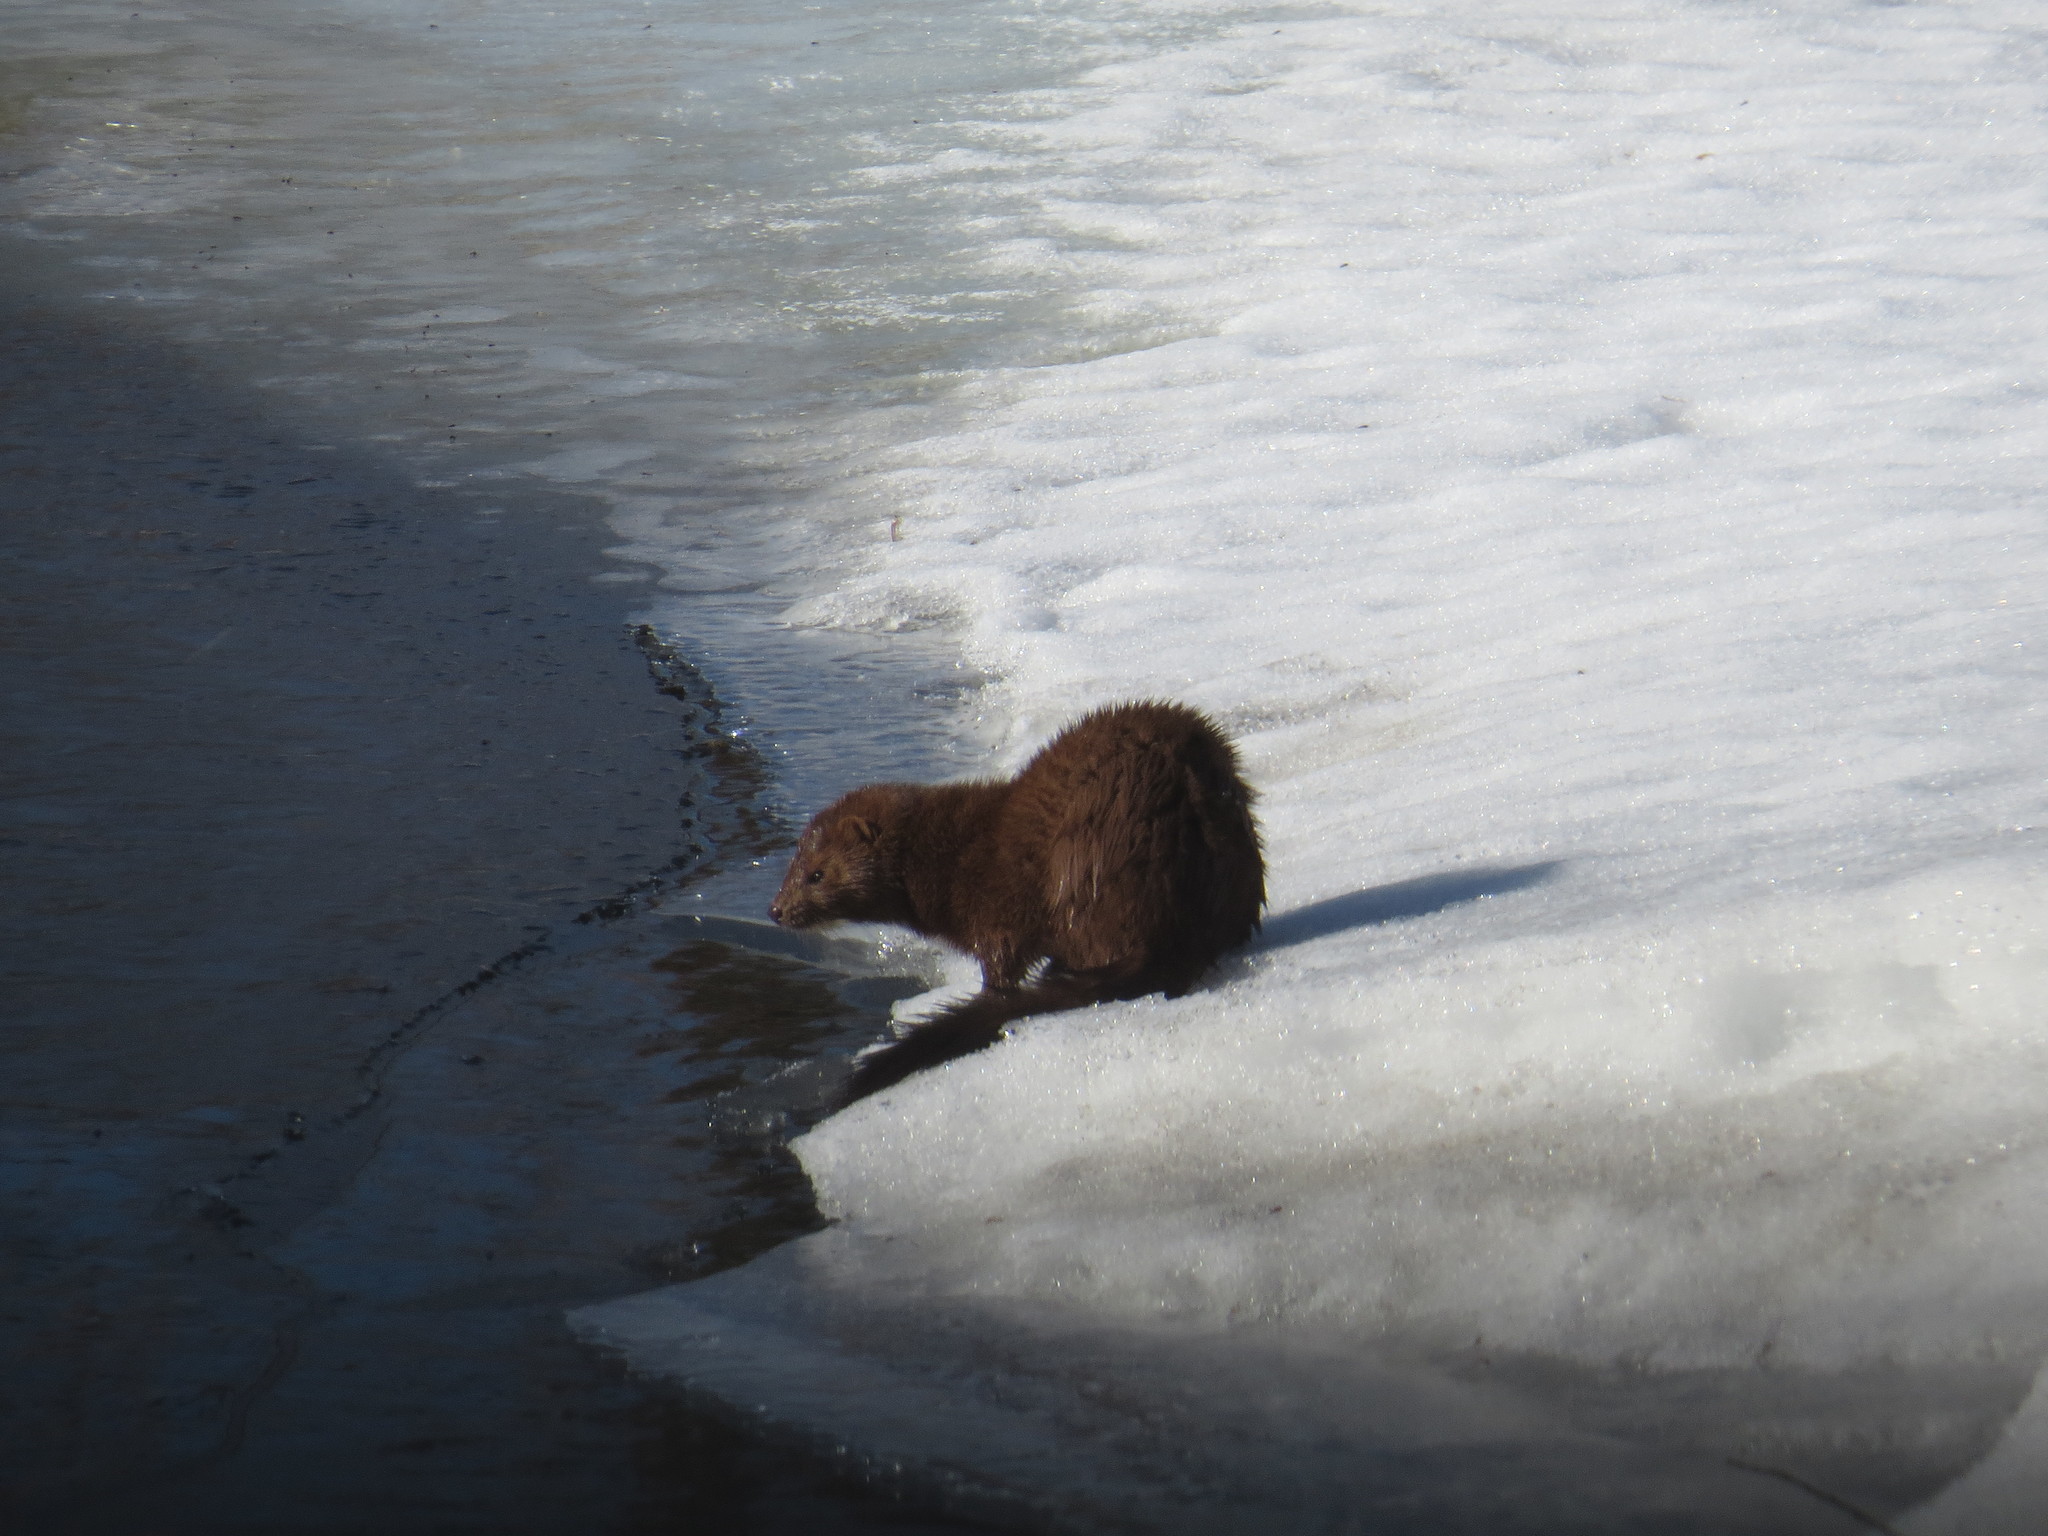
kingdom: Animalia
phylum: Chordata
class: Mammalia
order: Carnivora
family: Mustelidae
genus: Mustela
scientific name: Mustela
